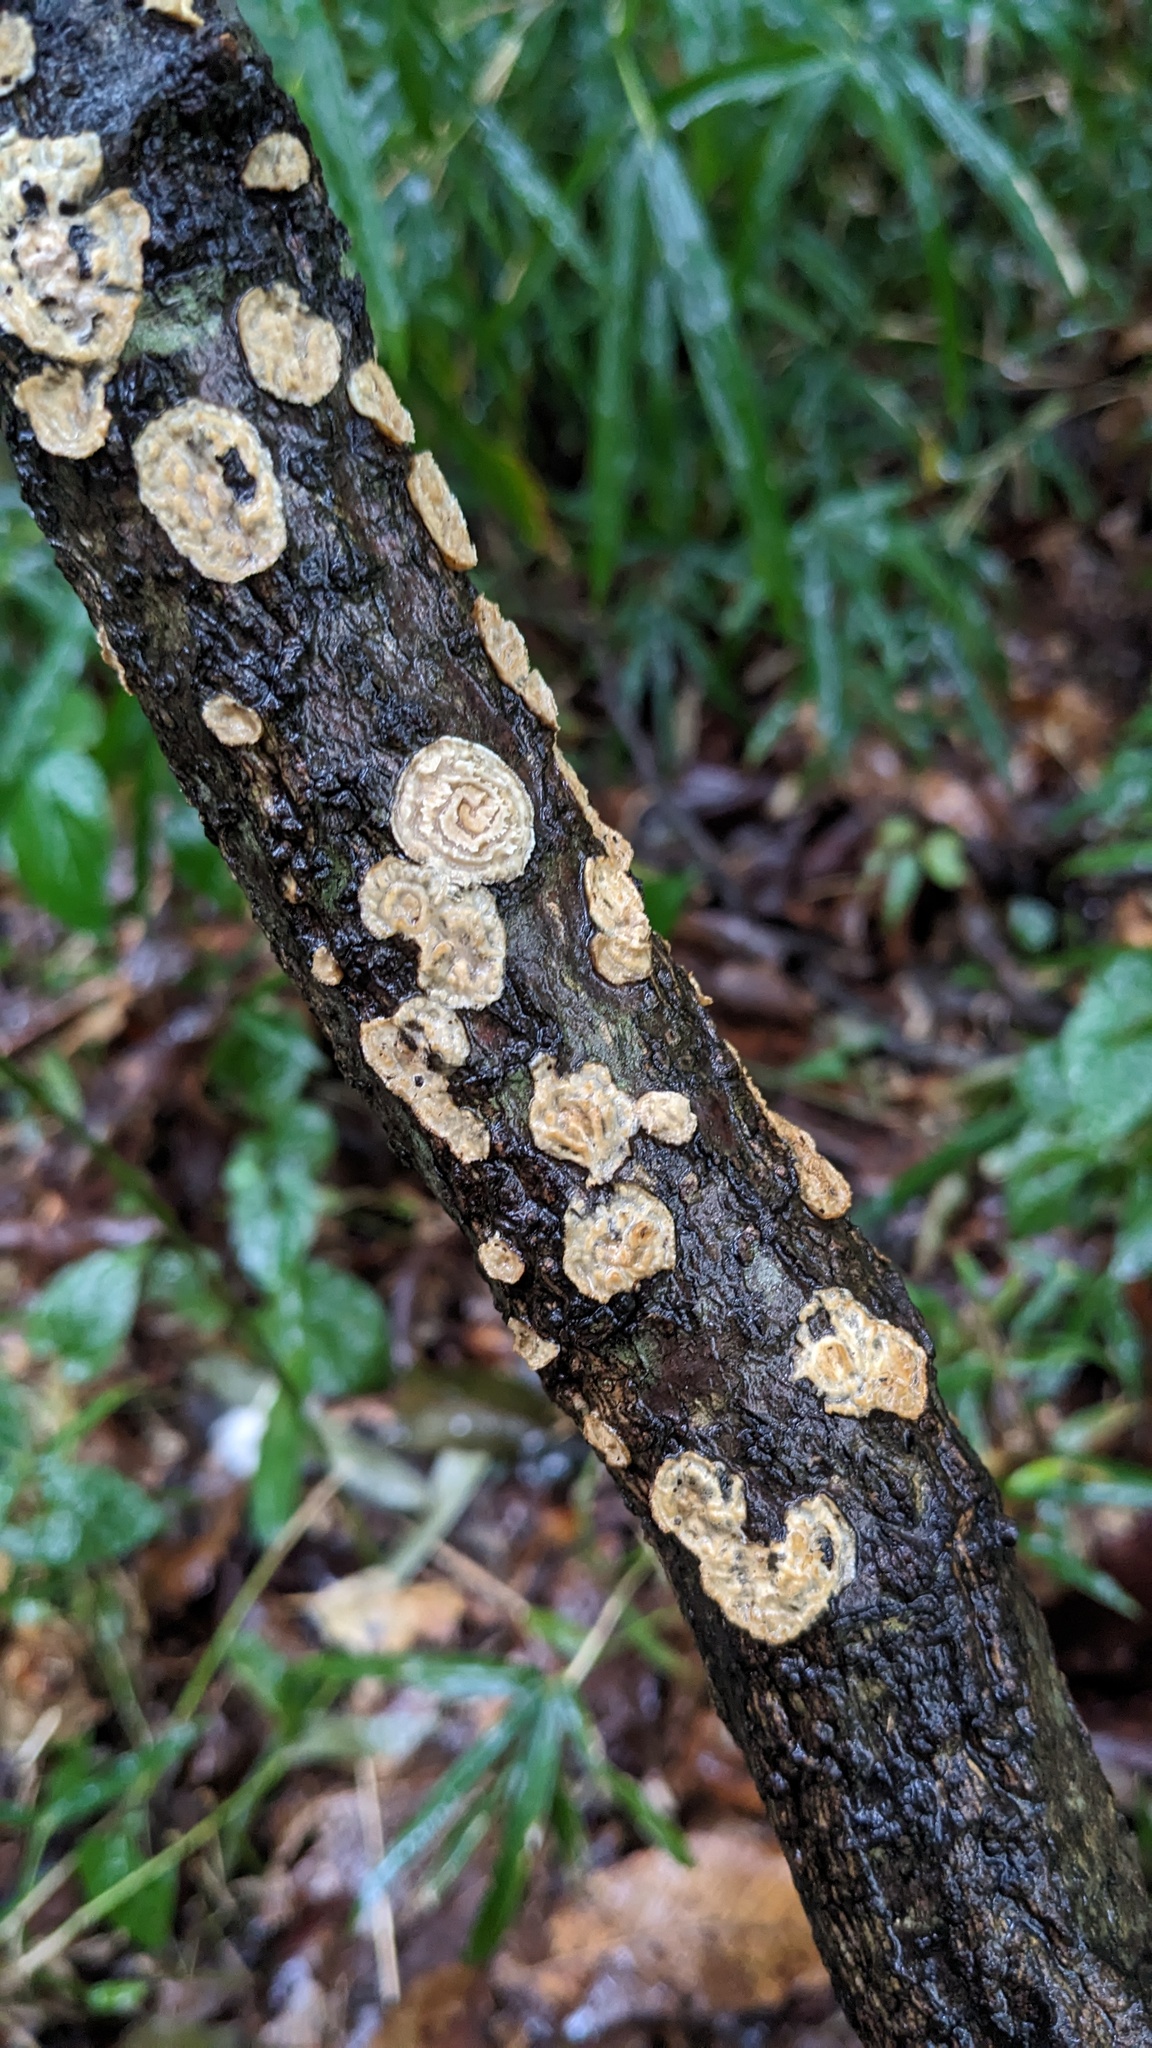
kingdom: Fungi
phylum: Basidiomycota
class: Agaricomycetes
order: Polyporales
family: Polyporaceae
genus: Lopharia
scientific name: Lopharia cinerascens
